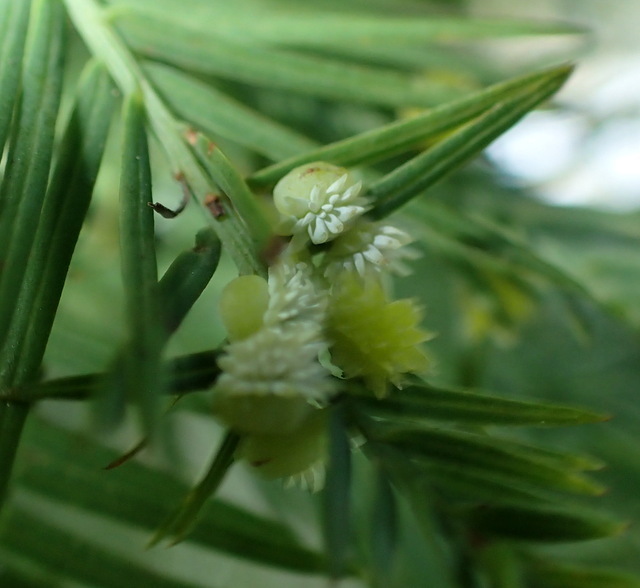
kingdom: Animalia
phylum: Arthropoda
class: Insecta
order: Diptera
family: Cecidomyiidae
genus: Taxodiomyia
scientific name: Taxodiomyia
